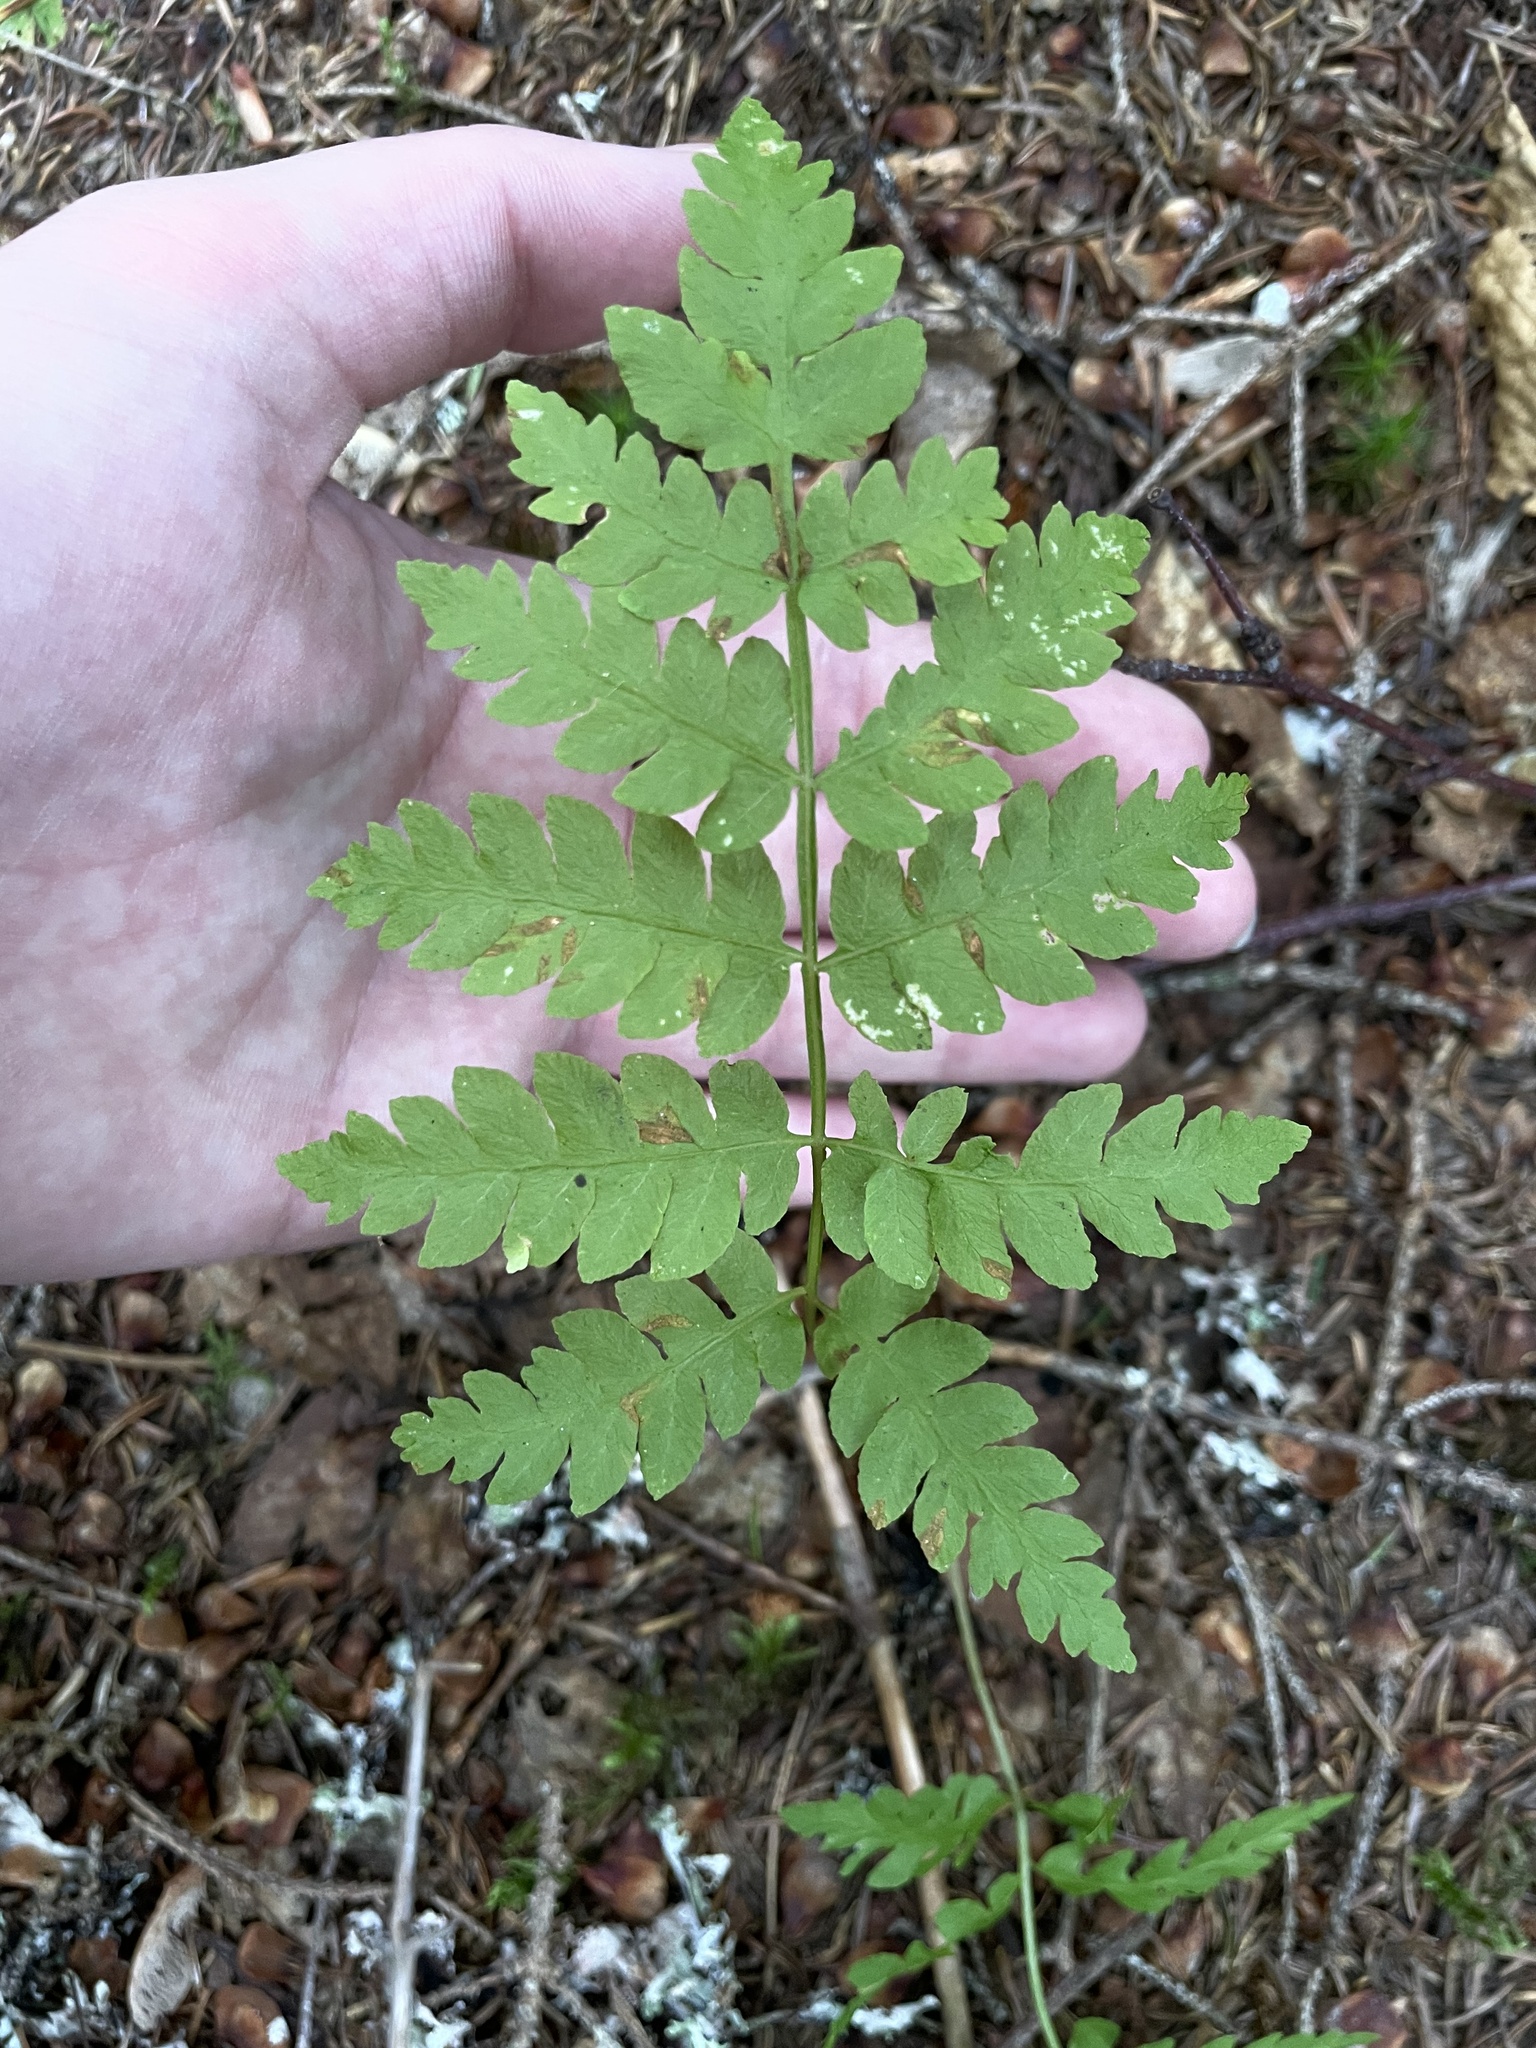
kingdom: Plantae
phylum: Tracheophyta
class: Polypodiopsida
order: Polypodiales
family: Dryopteridaceae
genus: Dryopteris
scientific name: Dryopteris cristata
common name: Crested wood fern
